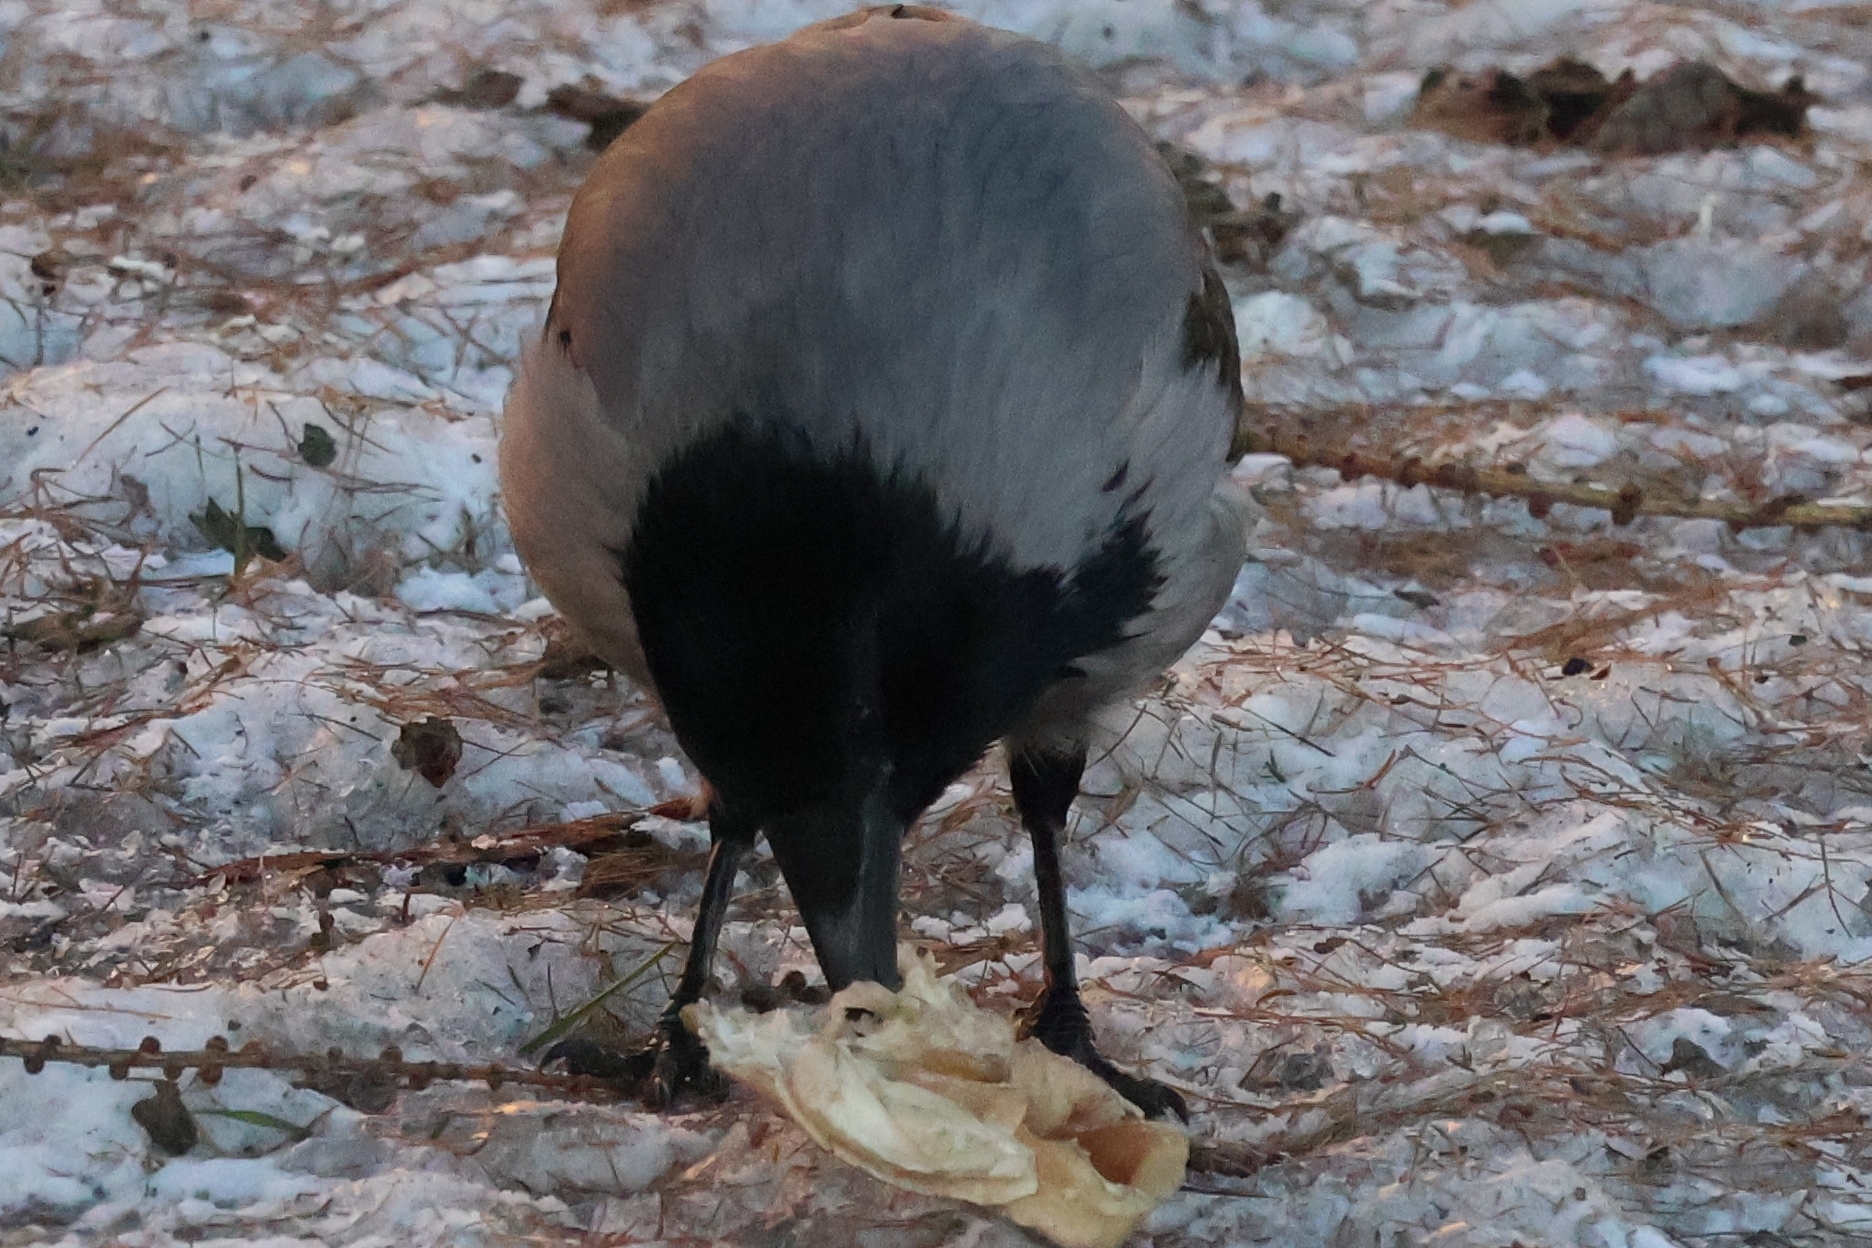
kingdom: Animalia
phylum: Chordata
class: Aves
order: Passeriformes
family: Corvidae
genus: Corvus
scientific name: Corvus cornix
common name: Hooded crow
